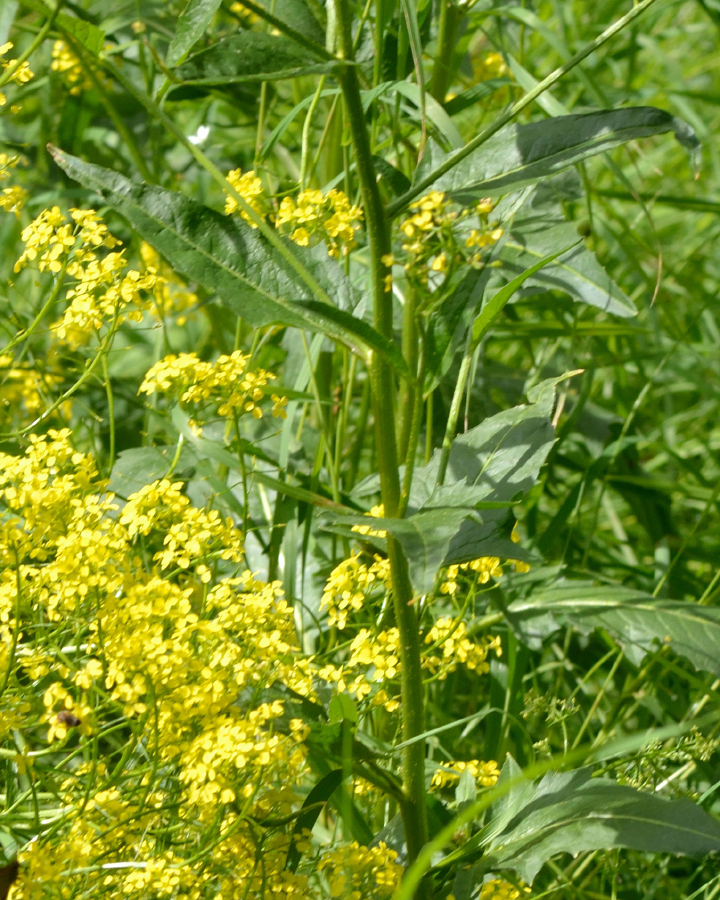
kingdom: Plantae
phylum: Tracheophyta
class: Magnoliopsida
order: Brassicales
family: Brassicaceae
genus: Bunias
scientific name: Bunias orientalis
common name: Warty-cabbage
